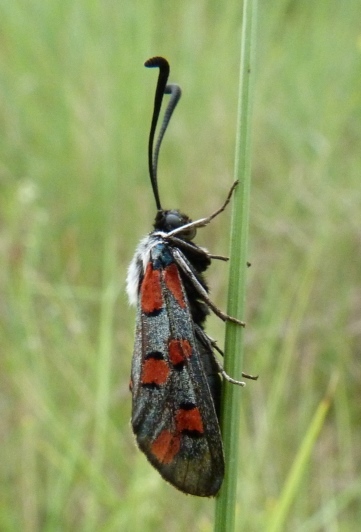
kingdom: Animalia
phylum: Arthropoda
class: Insecta
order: Lepidoptera
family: Zygaenidae
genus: Zygaena
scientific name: Zygaena rhadamanthus
